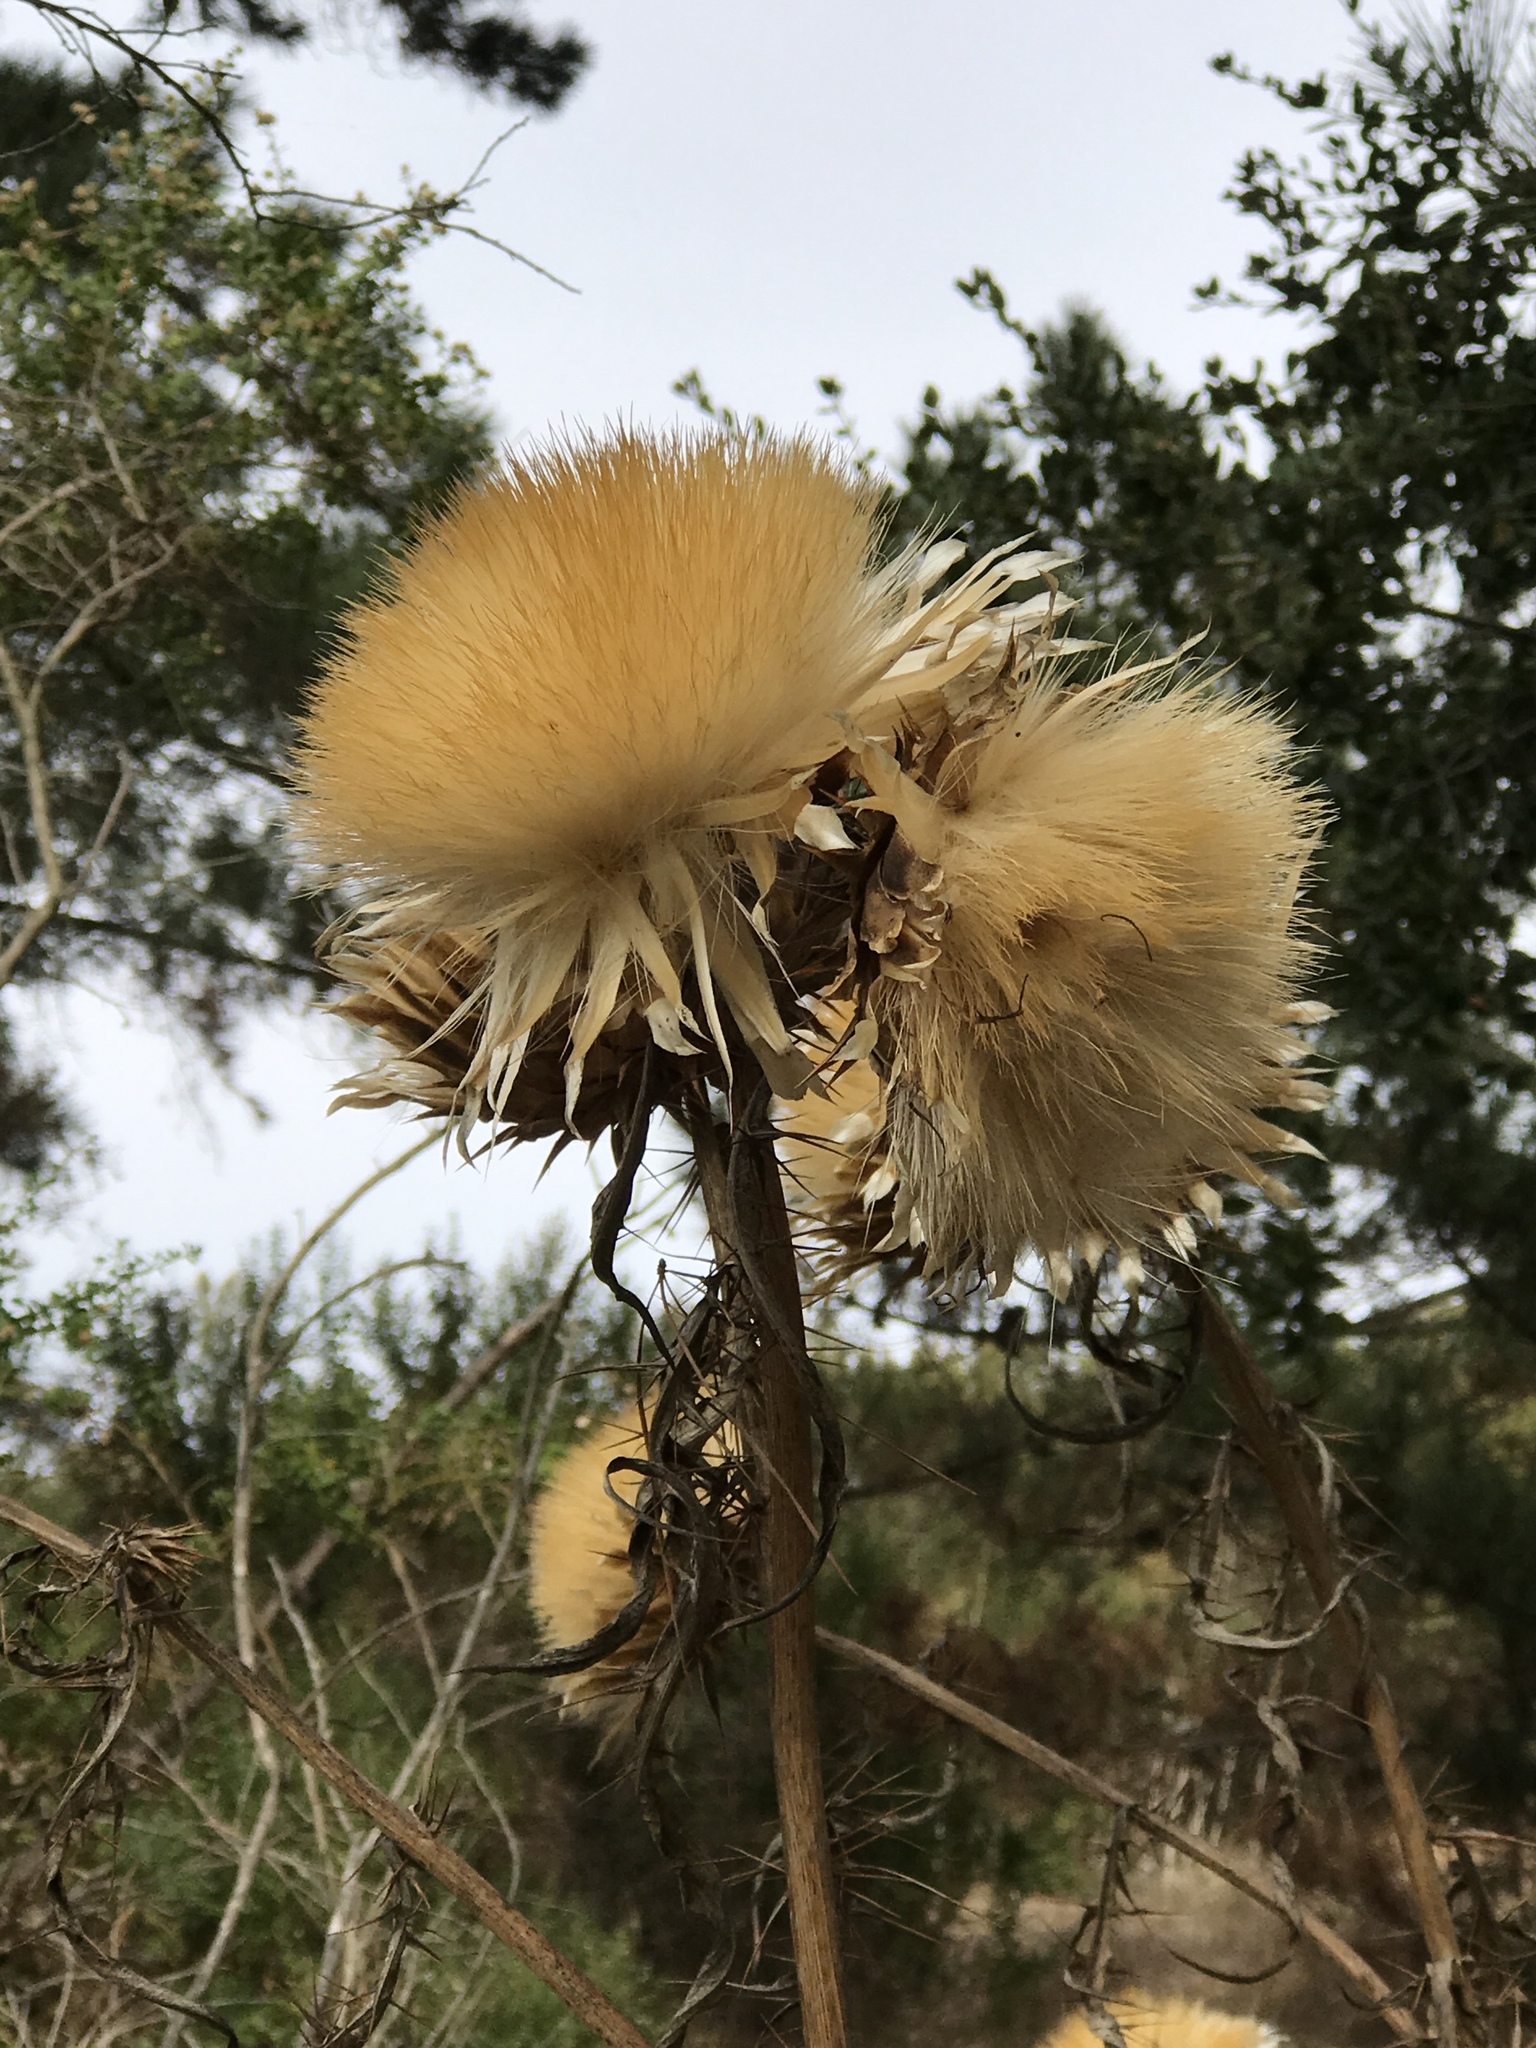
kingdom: Plantae
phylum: Tracheophyta
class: Magnoliopsida
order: Asterales
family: Asteraceae
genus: Cynara
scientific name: Cynara cardunculus
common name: Globe artichoke
